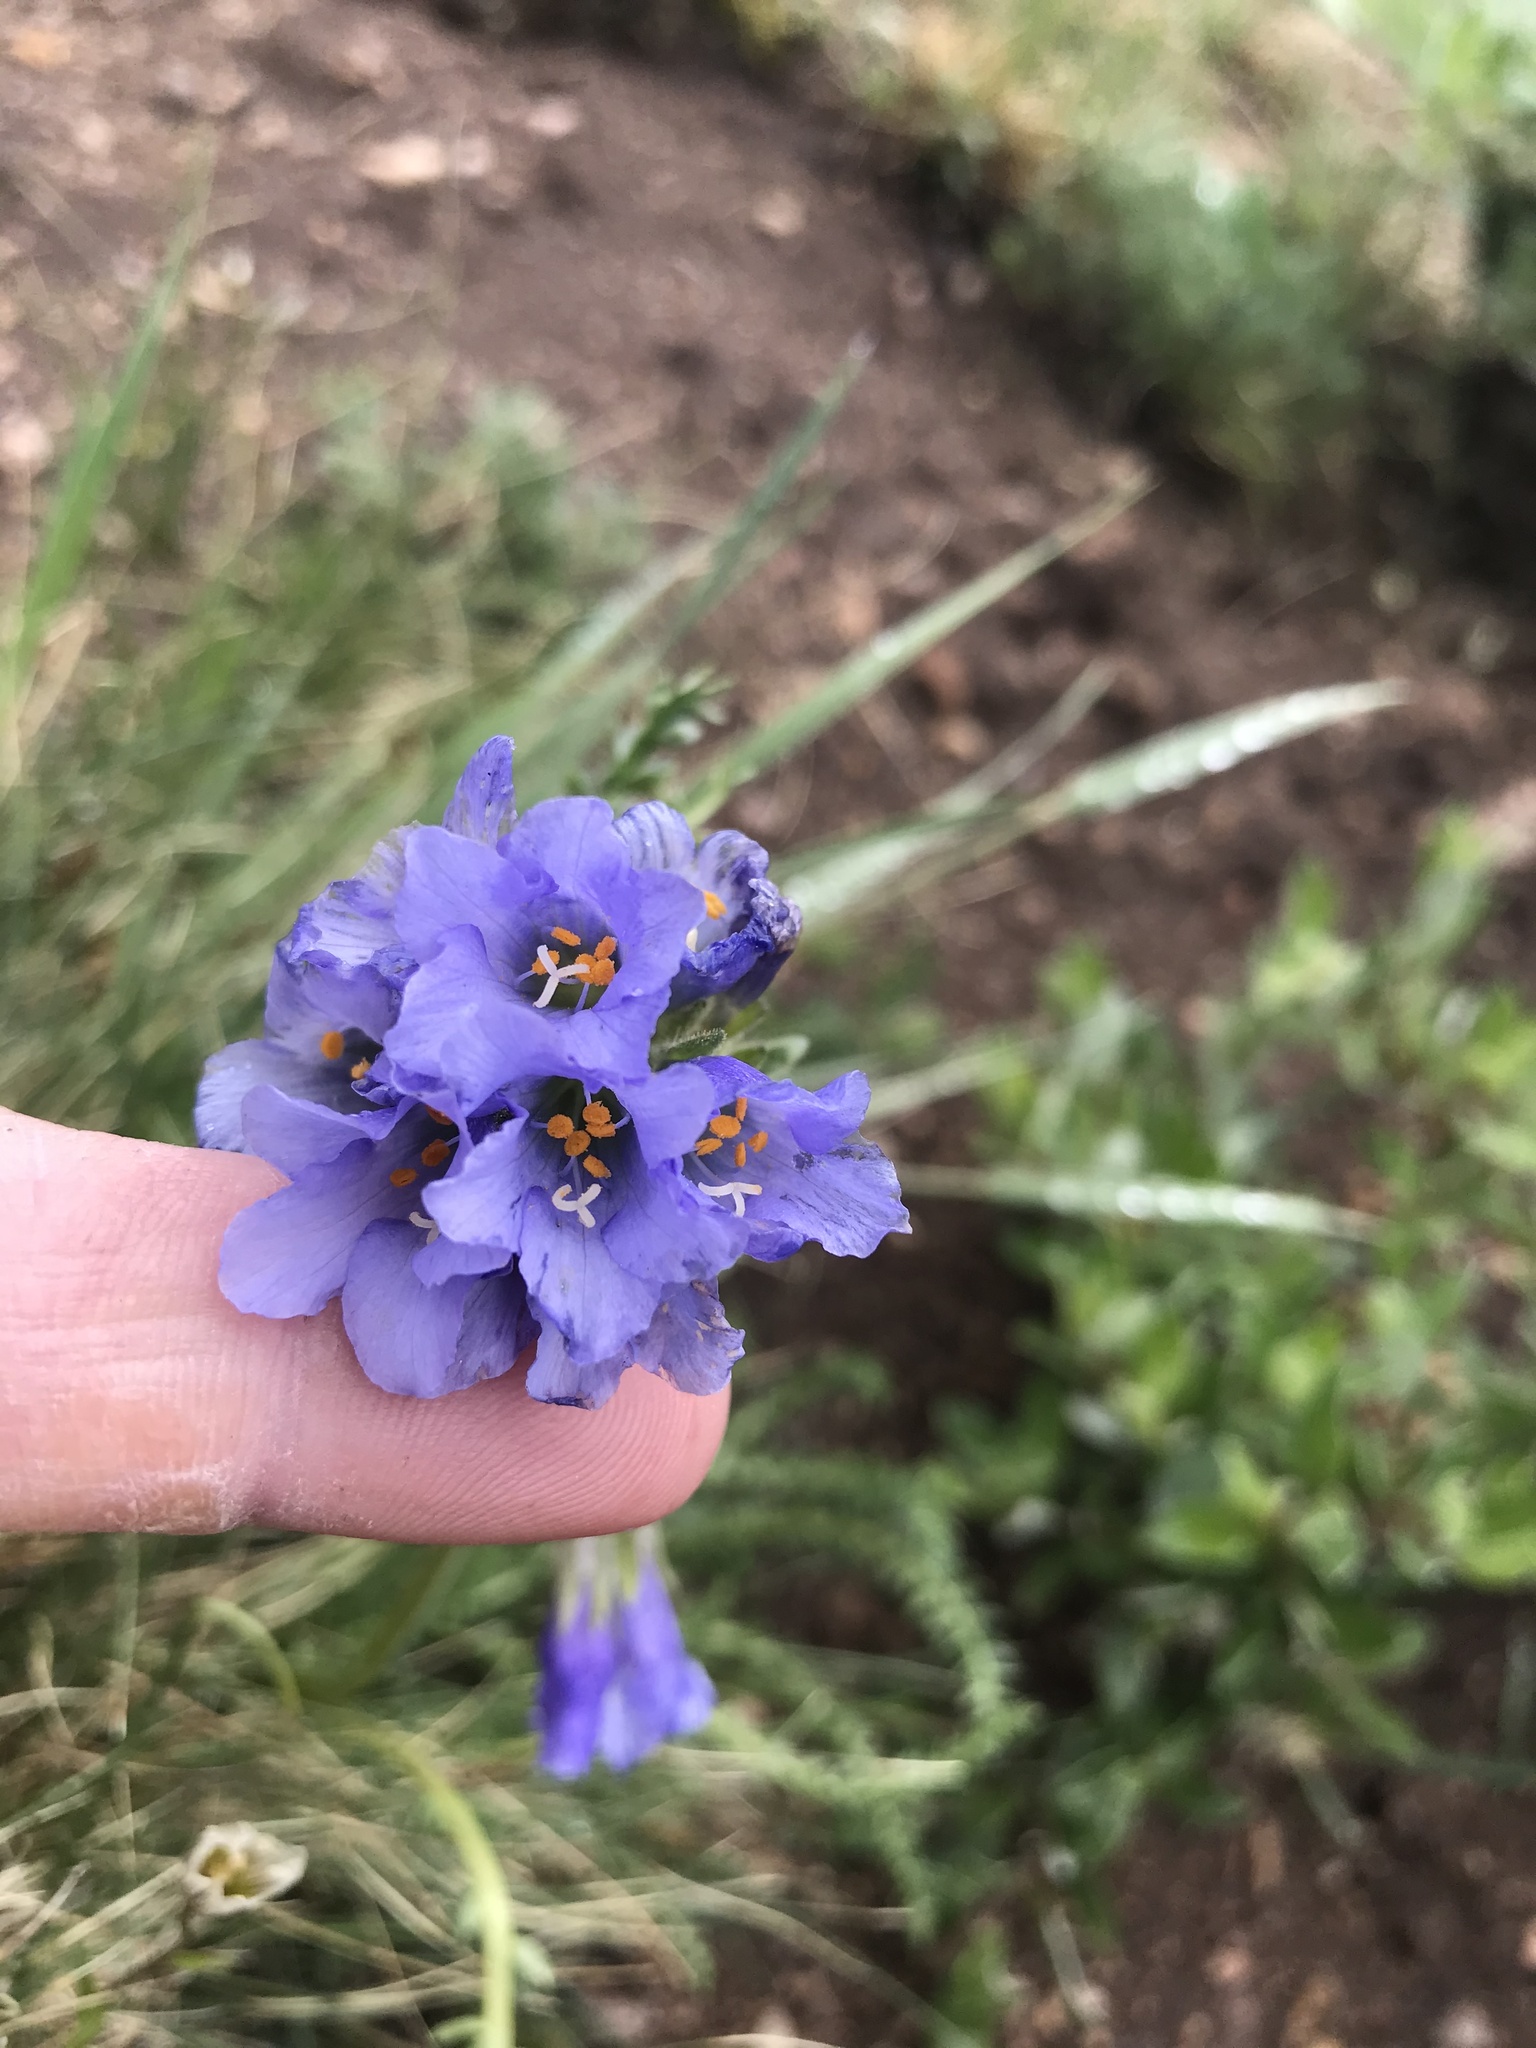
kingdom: Plantae
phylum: Tracheophyta
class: Magnoliopsida
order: Ericales
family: Polemoniaceae
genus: Polemonium
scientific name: Polemonium viscosum
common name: Skunk jacob's-ladder
